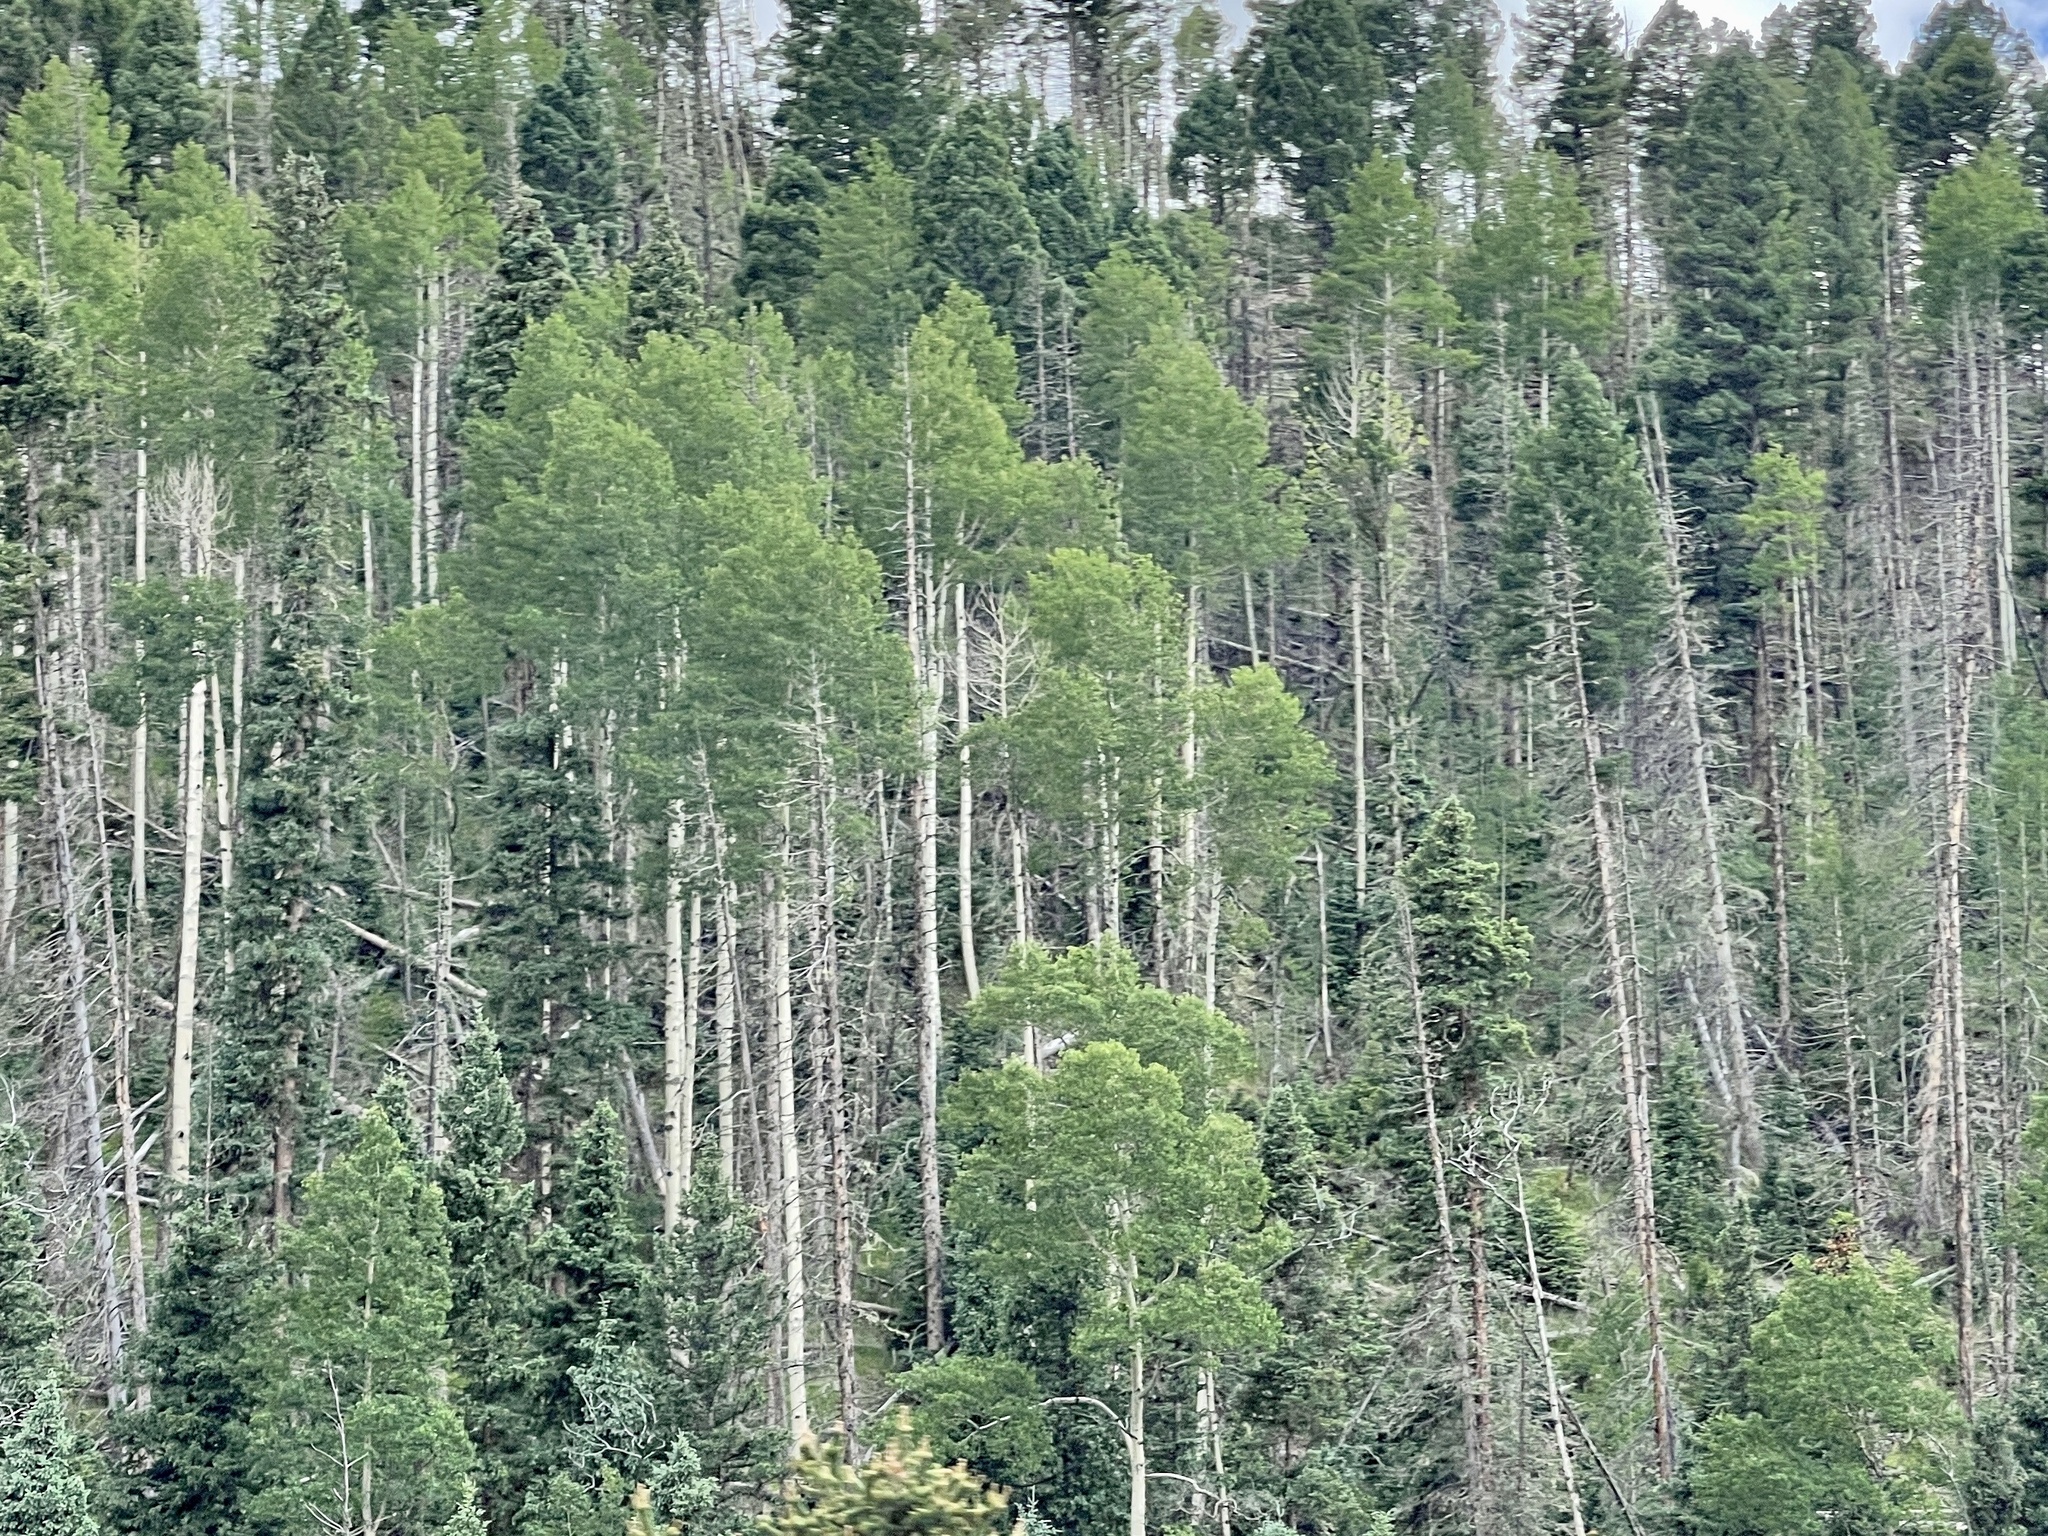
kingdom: Plantae
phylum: Tracheophyta
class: Magnoliopsida
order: Malpighiales
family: Salicaceae
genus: Populus
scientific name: Populus tremuloides
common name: Quaking aspen
